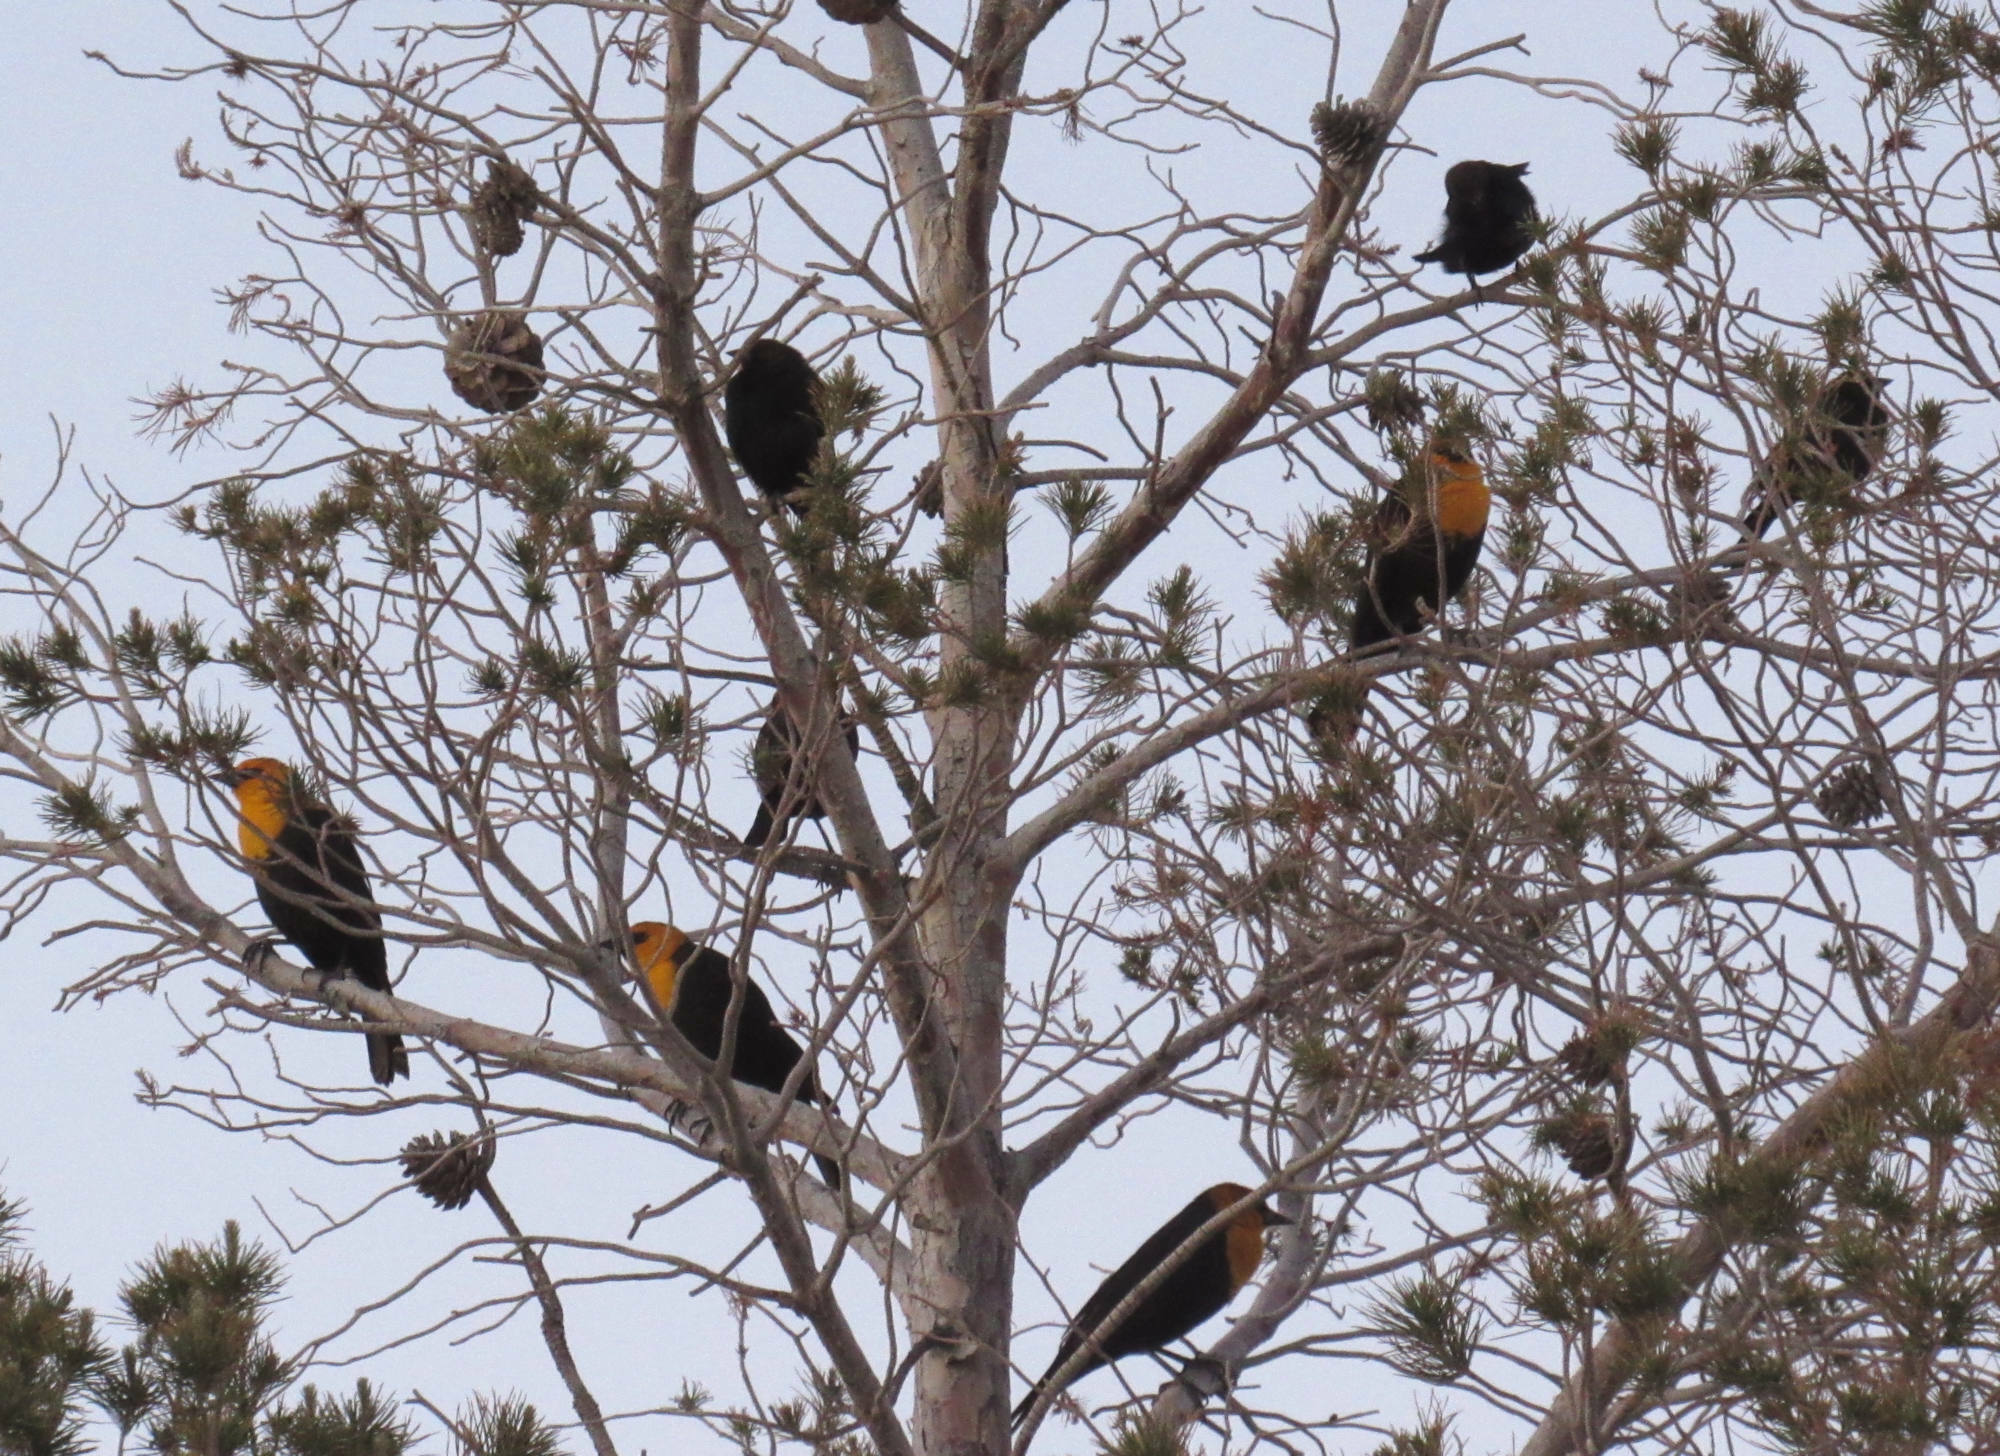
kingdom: Animalia
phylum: Chordata
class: Aves
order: Passeriformes
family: Icteridae
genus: Xanthocephalus
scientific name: Xanthocephalus xanthocephalus
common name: Yellow-headed blackbird
